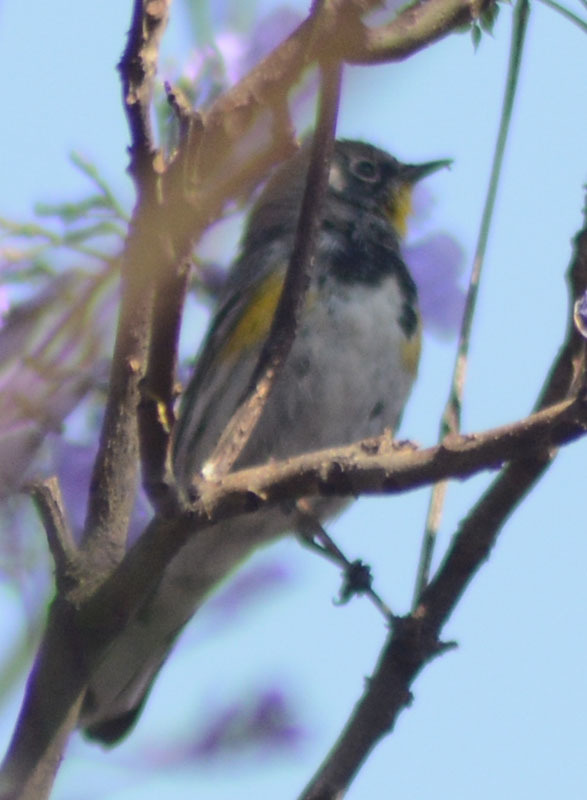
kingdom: Animalia
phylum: Chordata
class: Aves
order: Passeriformes
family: Parulidae
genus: Setophaga
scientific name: Setophaga auduboni
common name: Audubon's warbler
